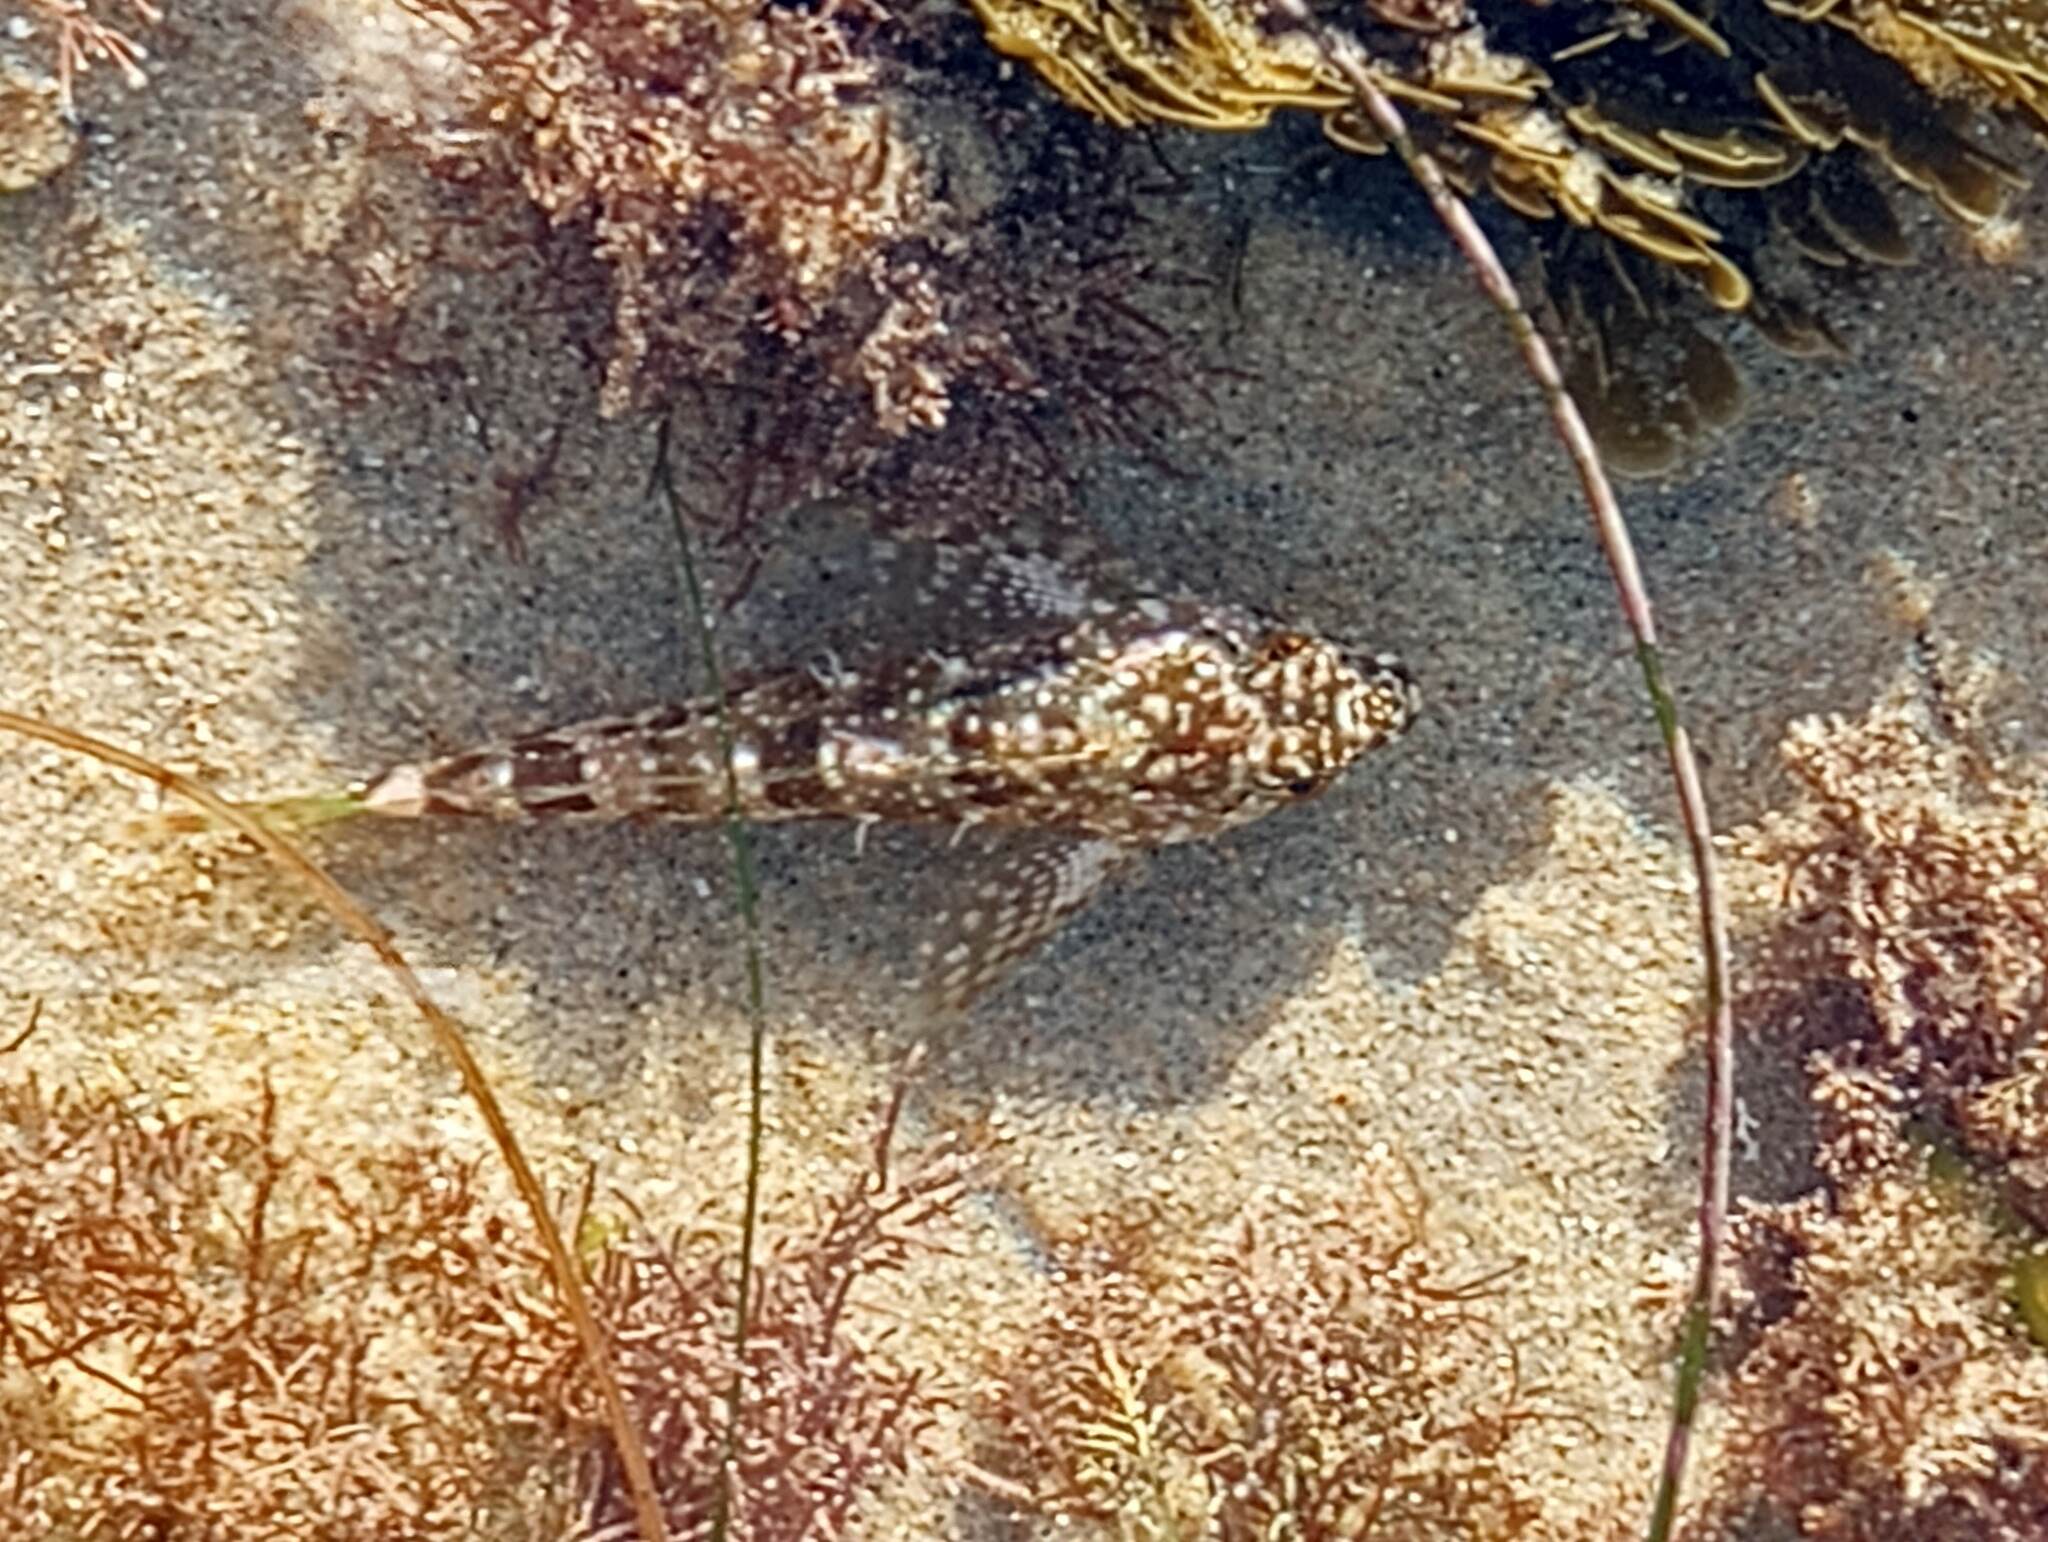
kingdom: Animalia
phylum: Chordata
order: Scorpaeniformes
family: Cottidae
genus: Clinocottus
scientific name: Clinocottus analis
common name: Woolly sculpin
